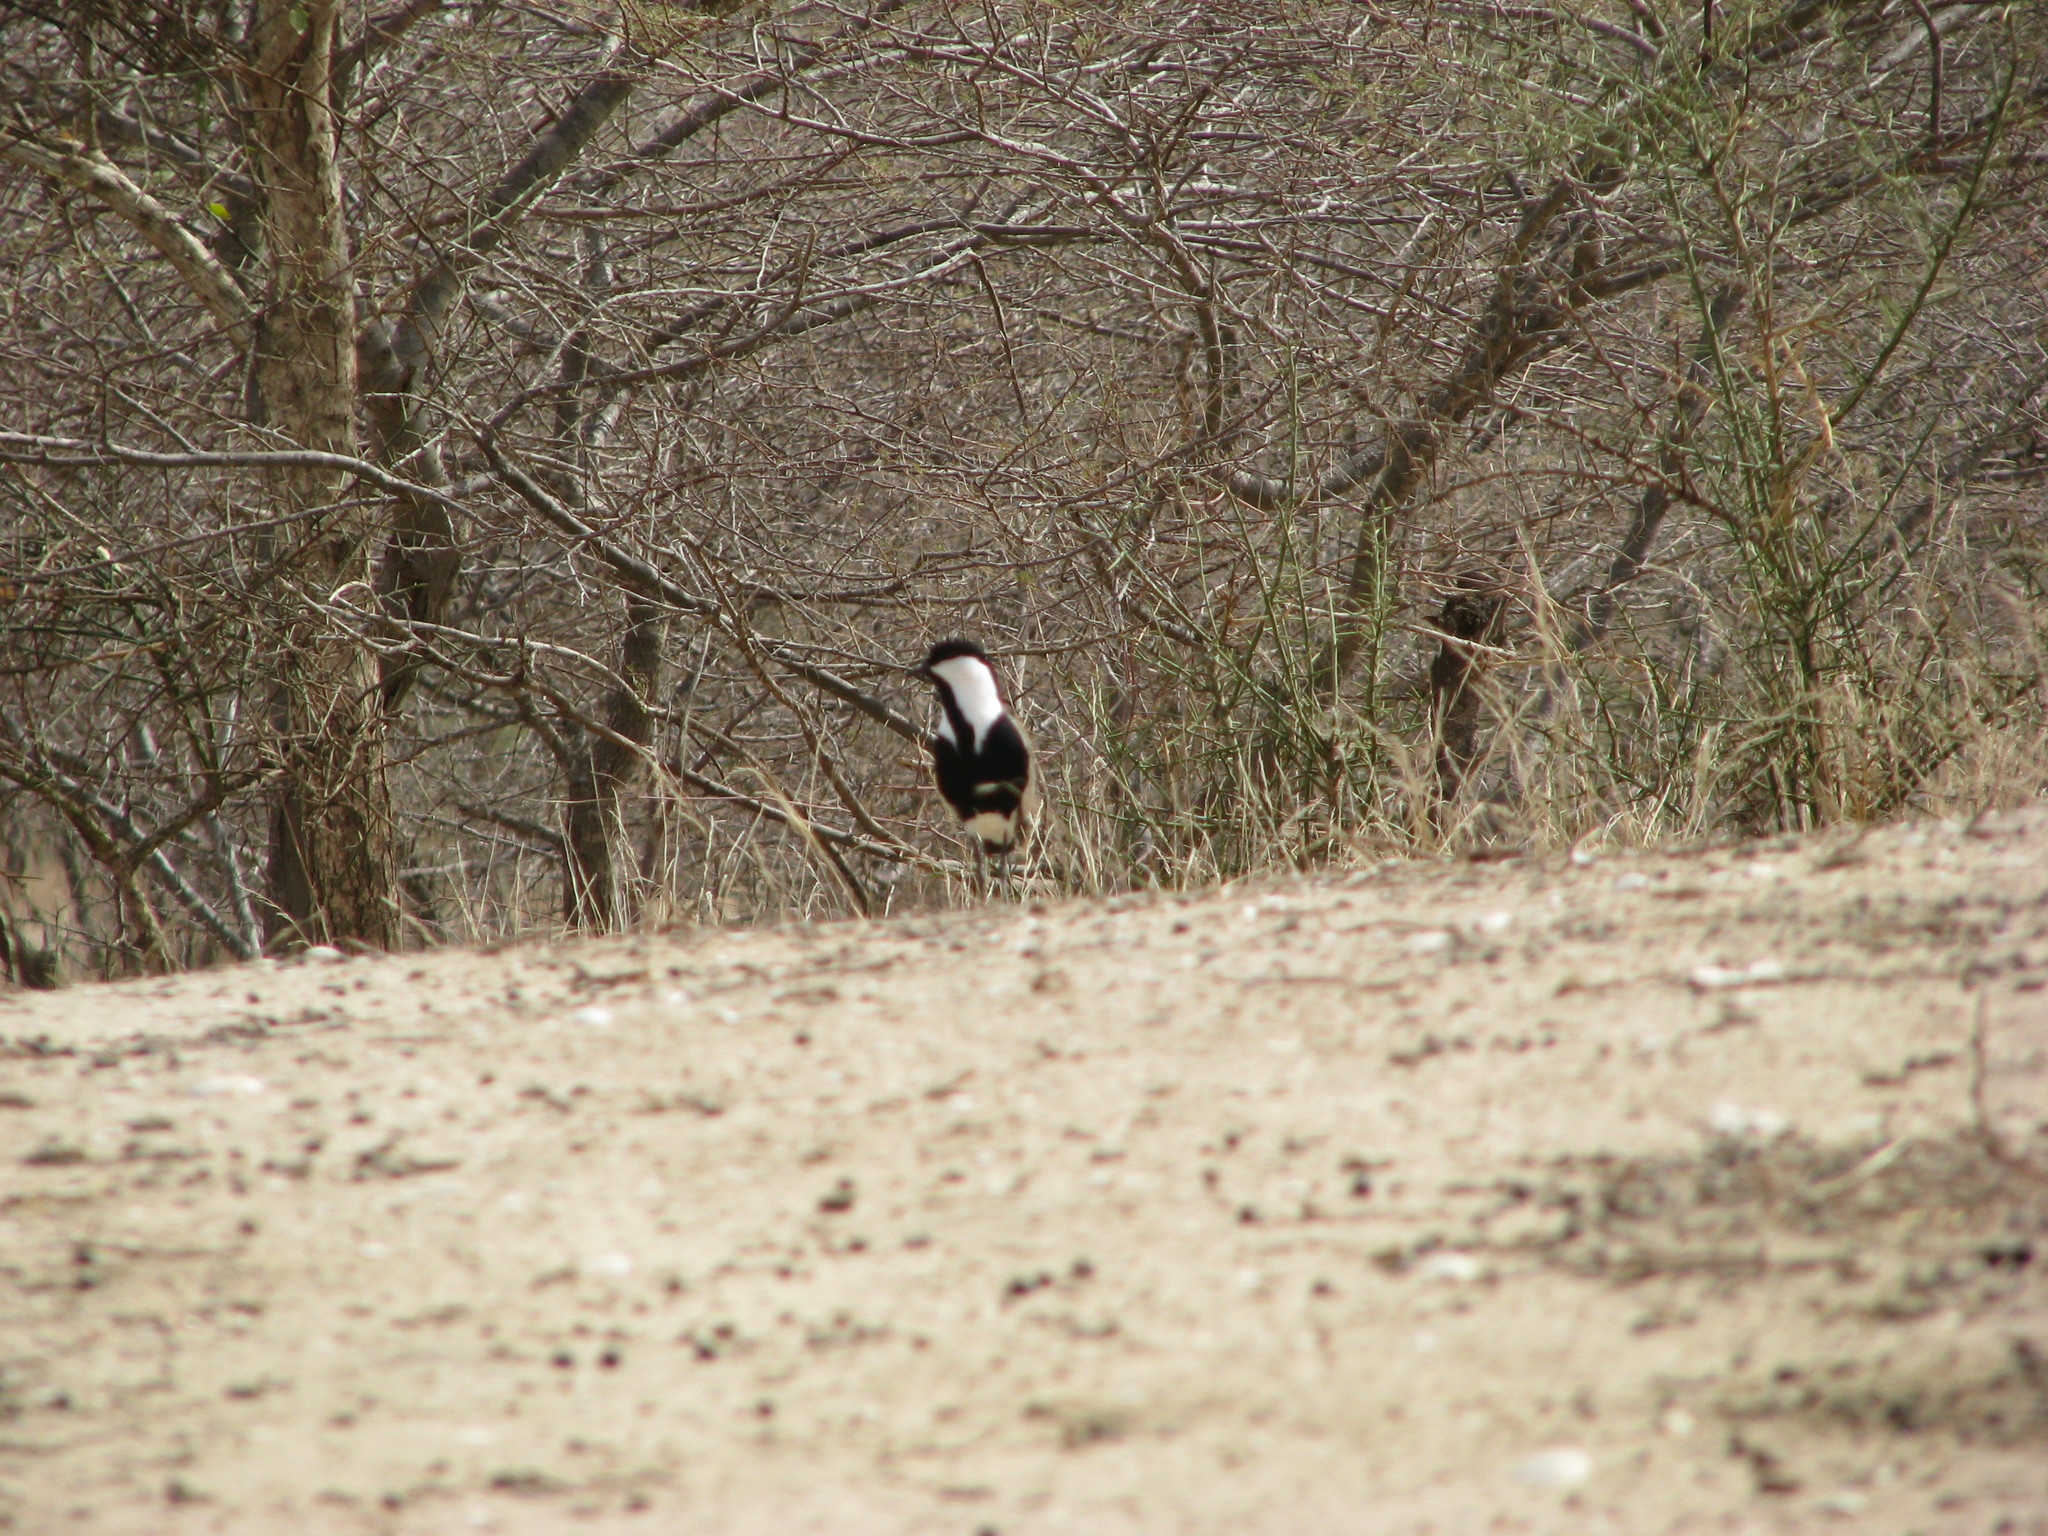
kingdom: Animalia
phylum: Chordata
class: Aves
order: Charadriiformes
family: Charadriidae
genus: Vanellus
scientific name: Vanellus spinosus
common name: Spur-winged lapwing
